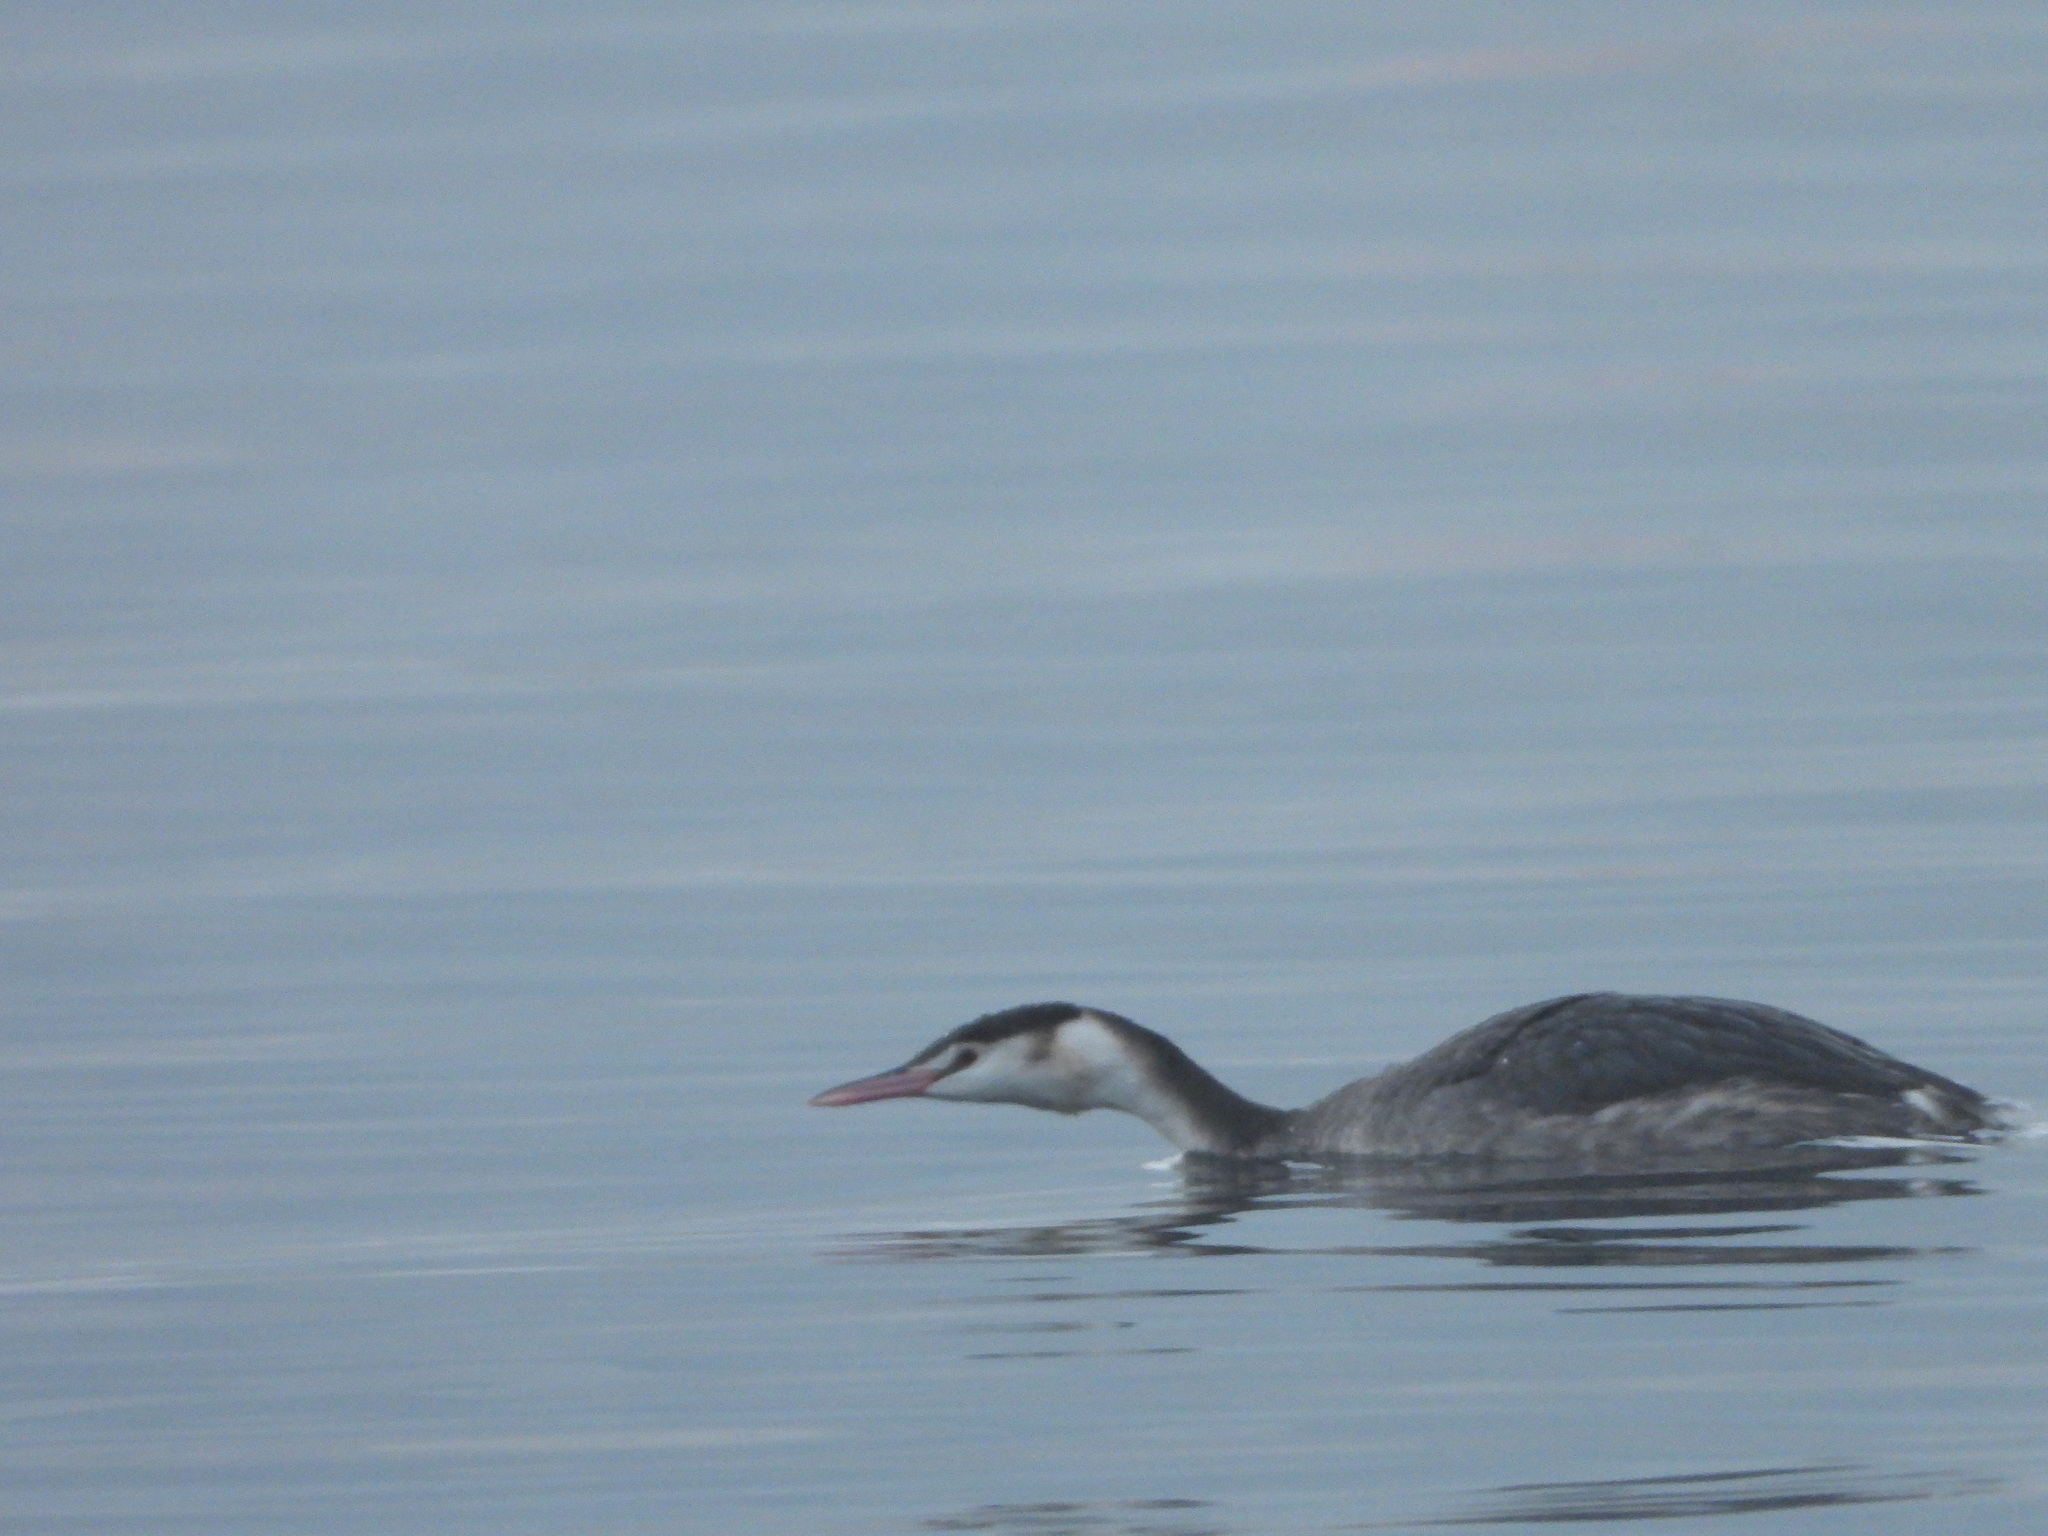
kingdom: Animalia
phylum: Chordata
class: Aves
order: Podicipediformes
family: Podicipedidae
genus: Podiceps
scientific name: Podiceps cristatus
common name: Great crested grebe
